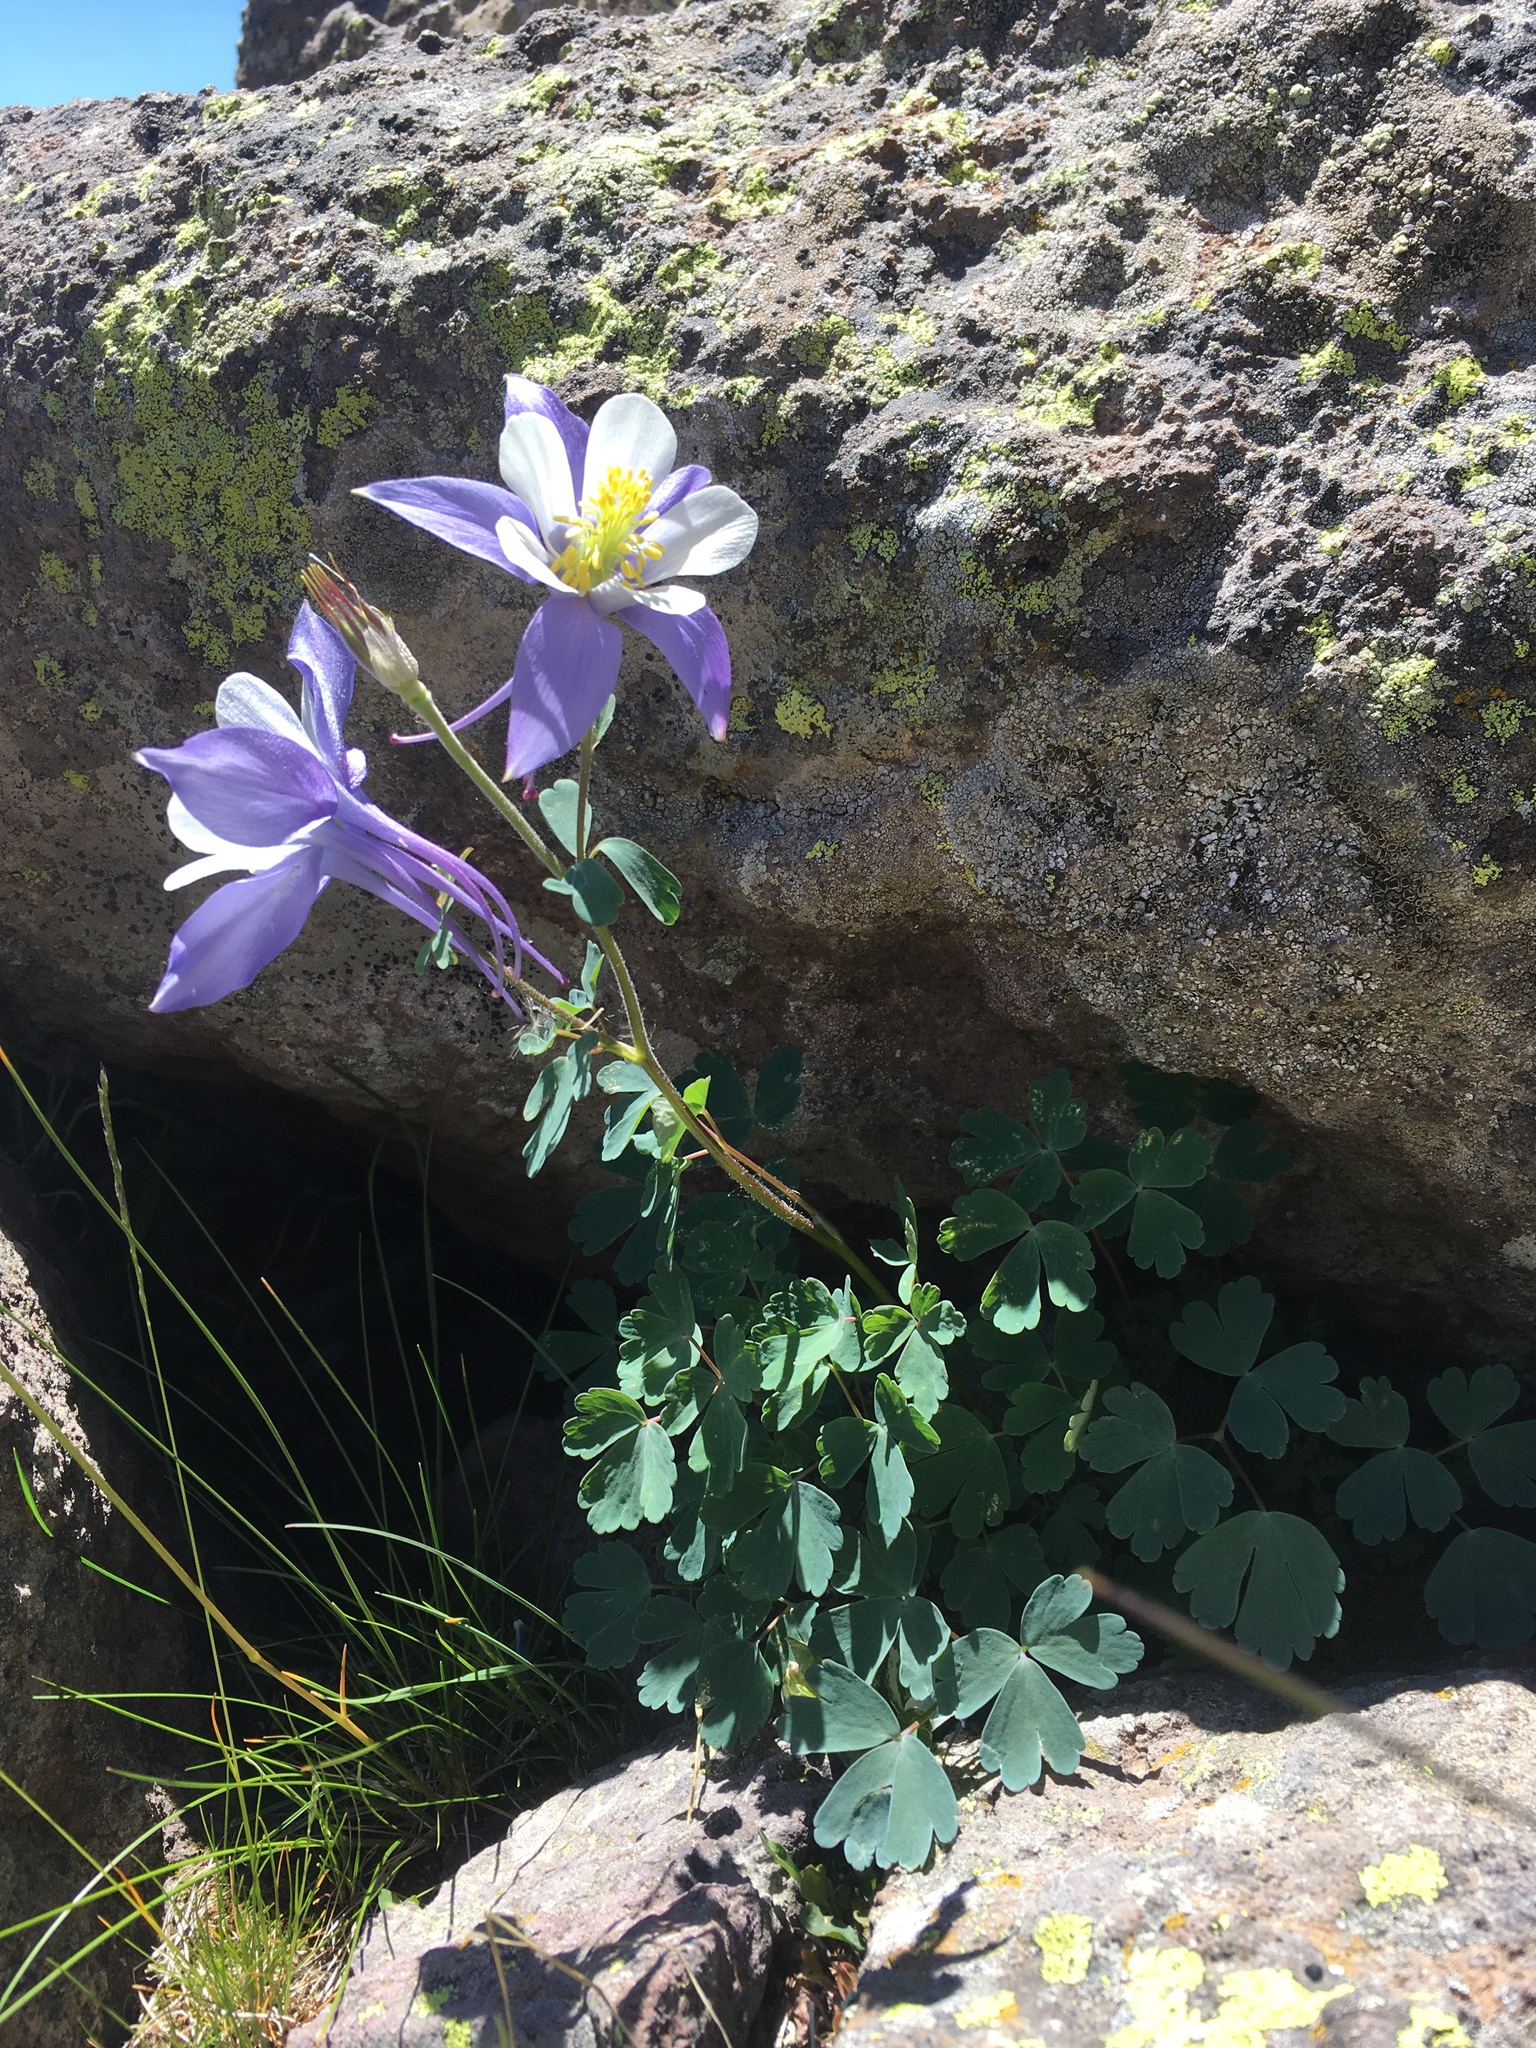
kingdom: Plantae
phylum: Tracheophyta
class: Magnoliopsida
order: Ranunculales
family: Ranunculaceae
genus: Aquilegia
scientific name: Aquilegia coerulea
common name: Rocky mountain columbine
